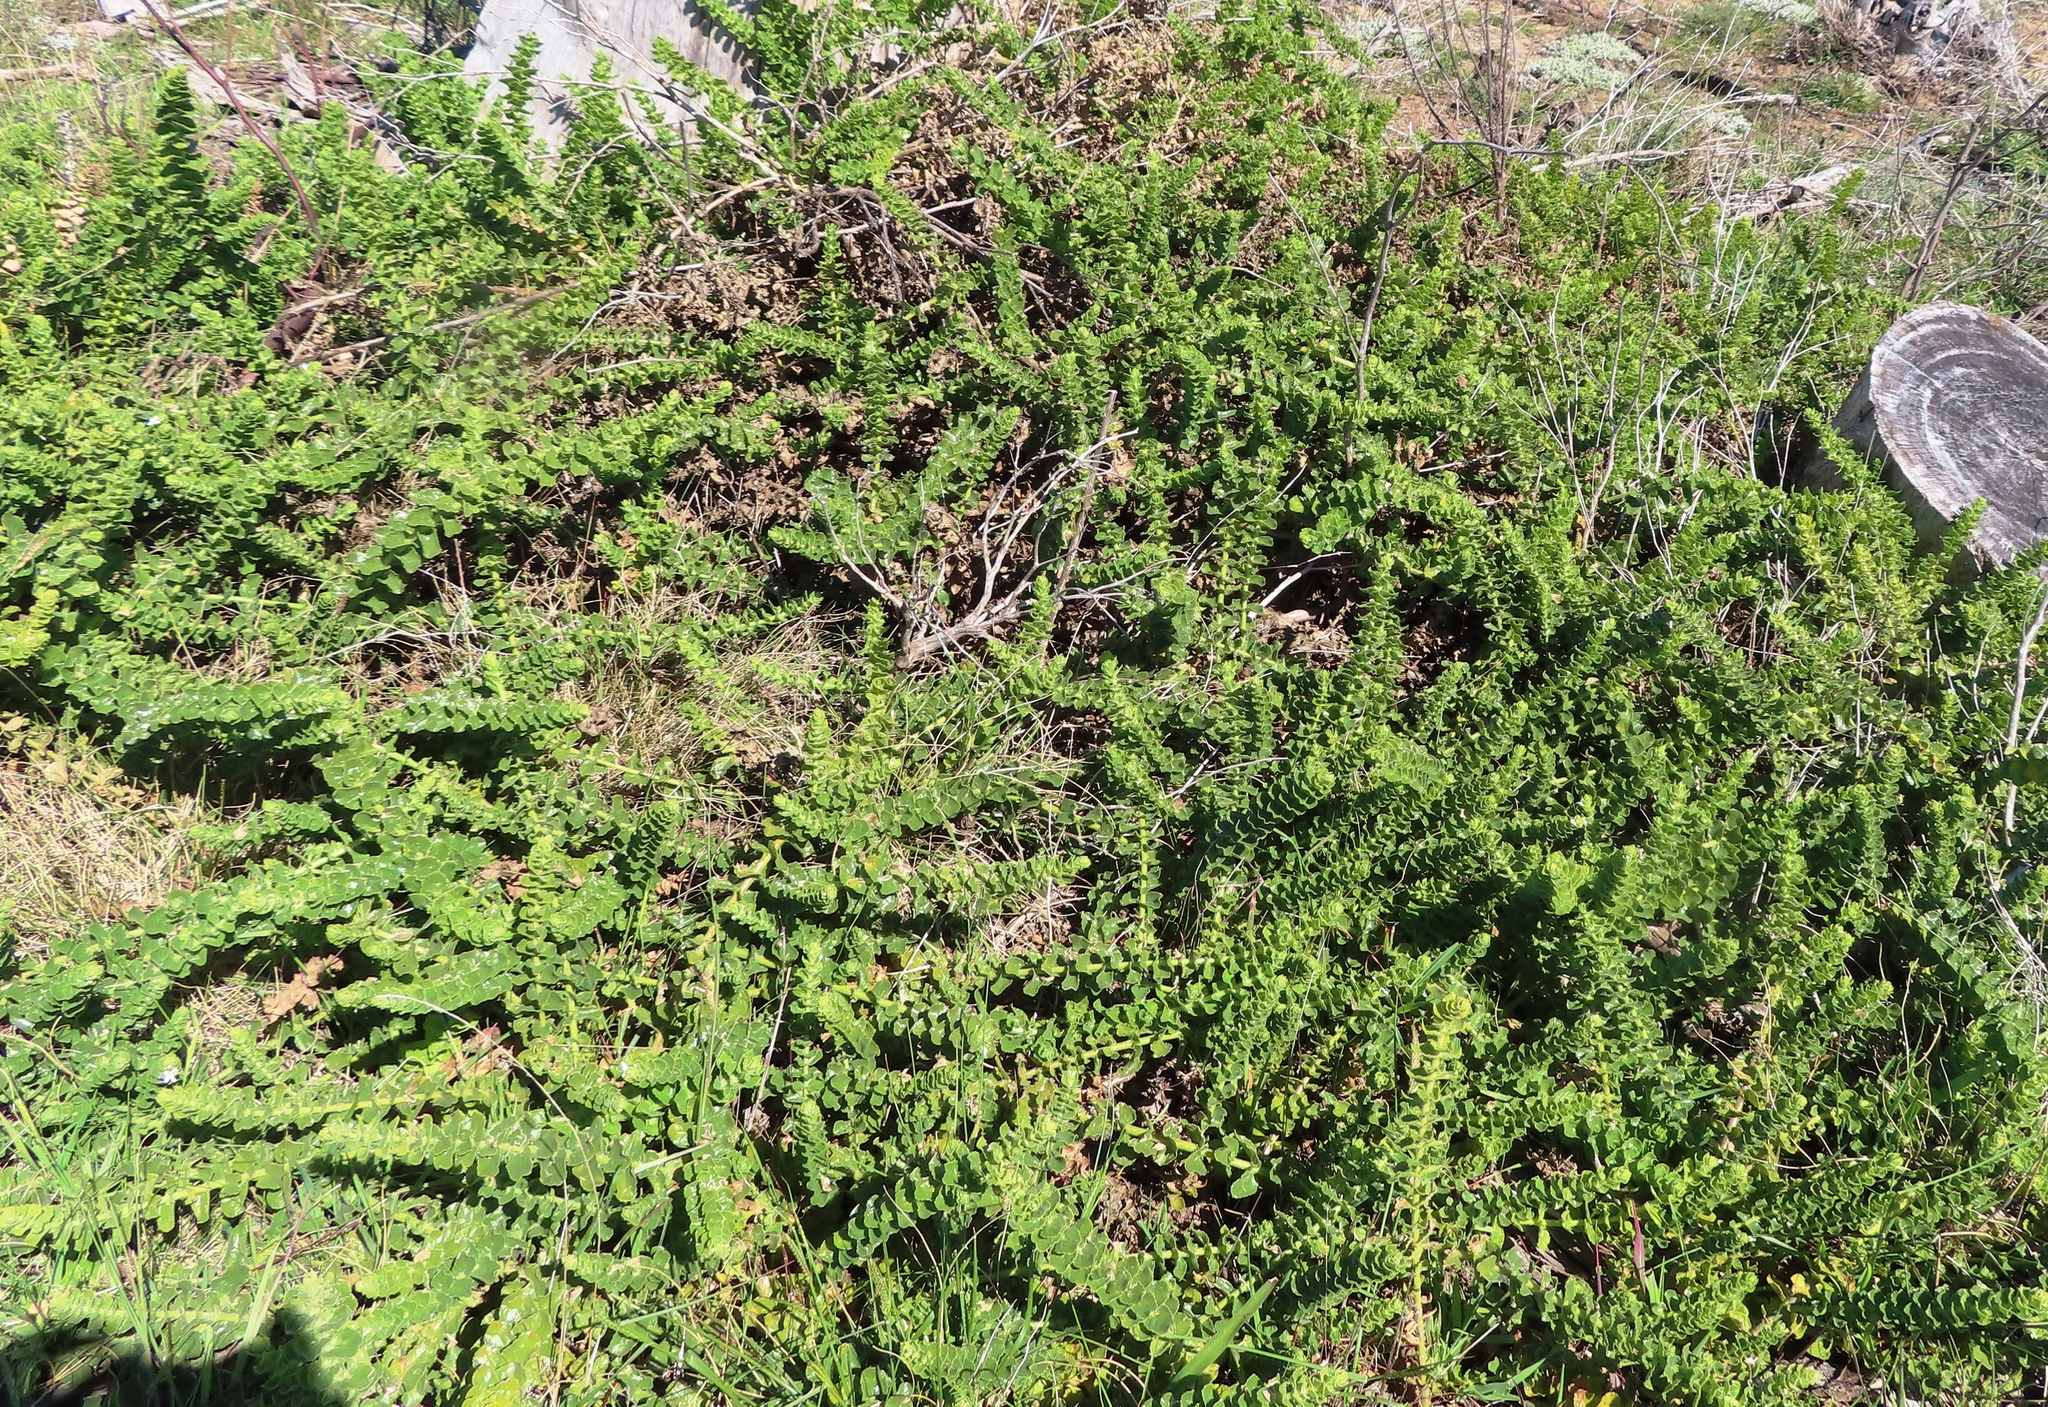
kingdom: Plantae
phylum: Tracheophyta
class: Magnoliopsida
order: Lamiales
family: Scrophulariaceae
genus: Oftia
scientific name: Oftia africana
